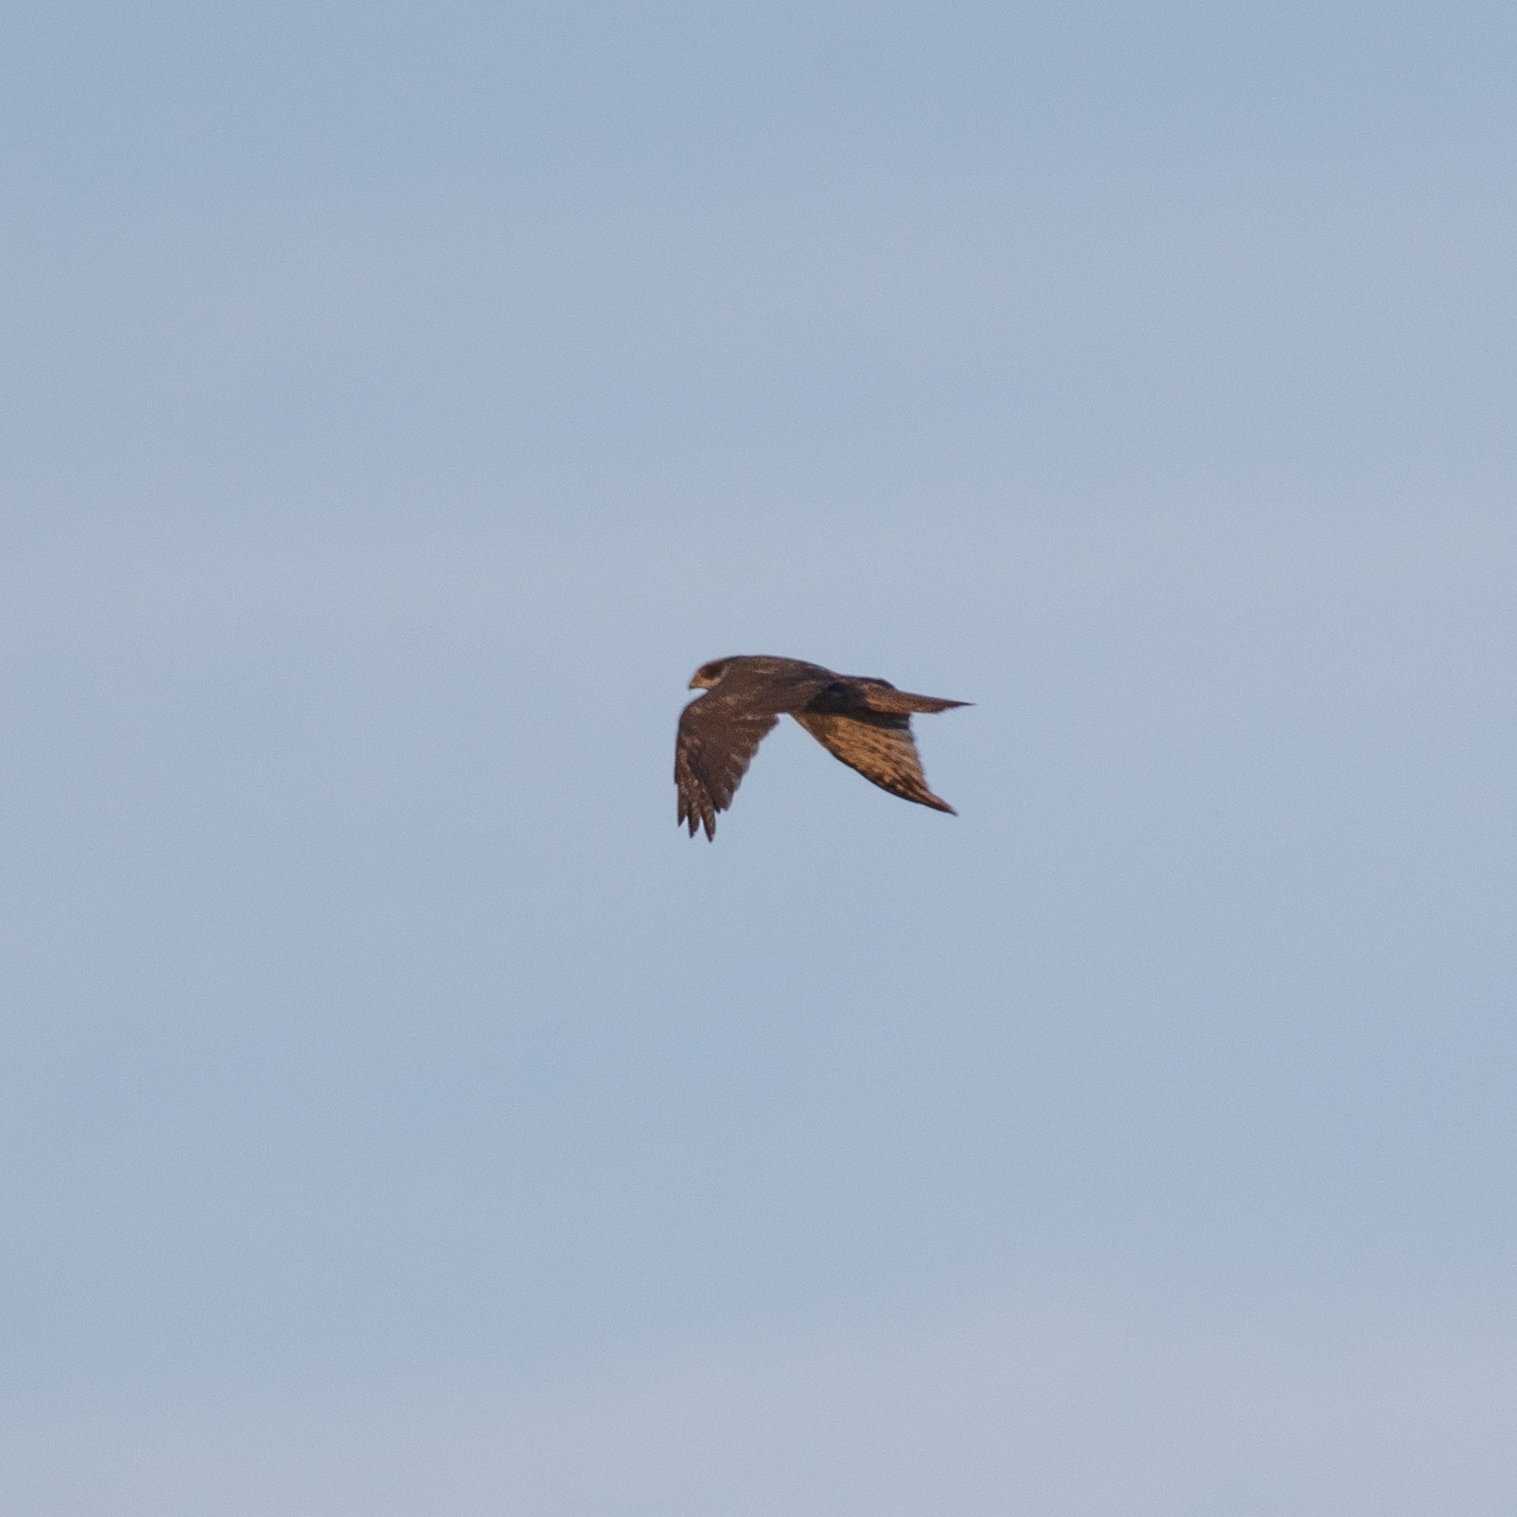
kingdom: Animalia
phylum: Chordata
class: Aves
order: Accipitriformes
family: Accipitridae
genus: Accipiter
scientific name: Accipiter gentilis
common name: Northern goshawk
